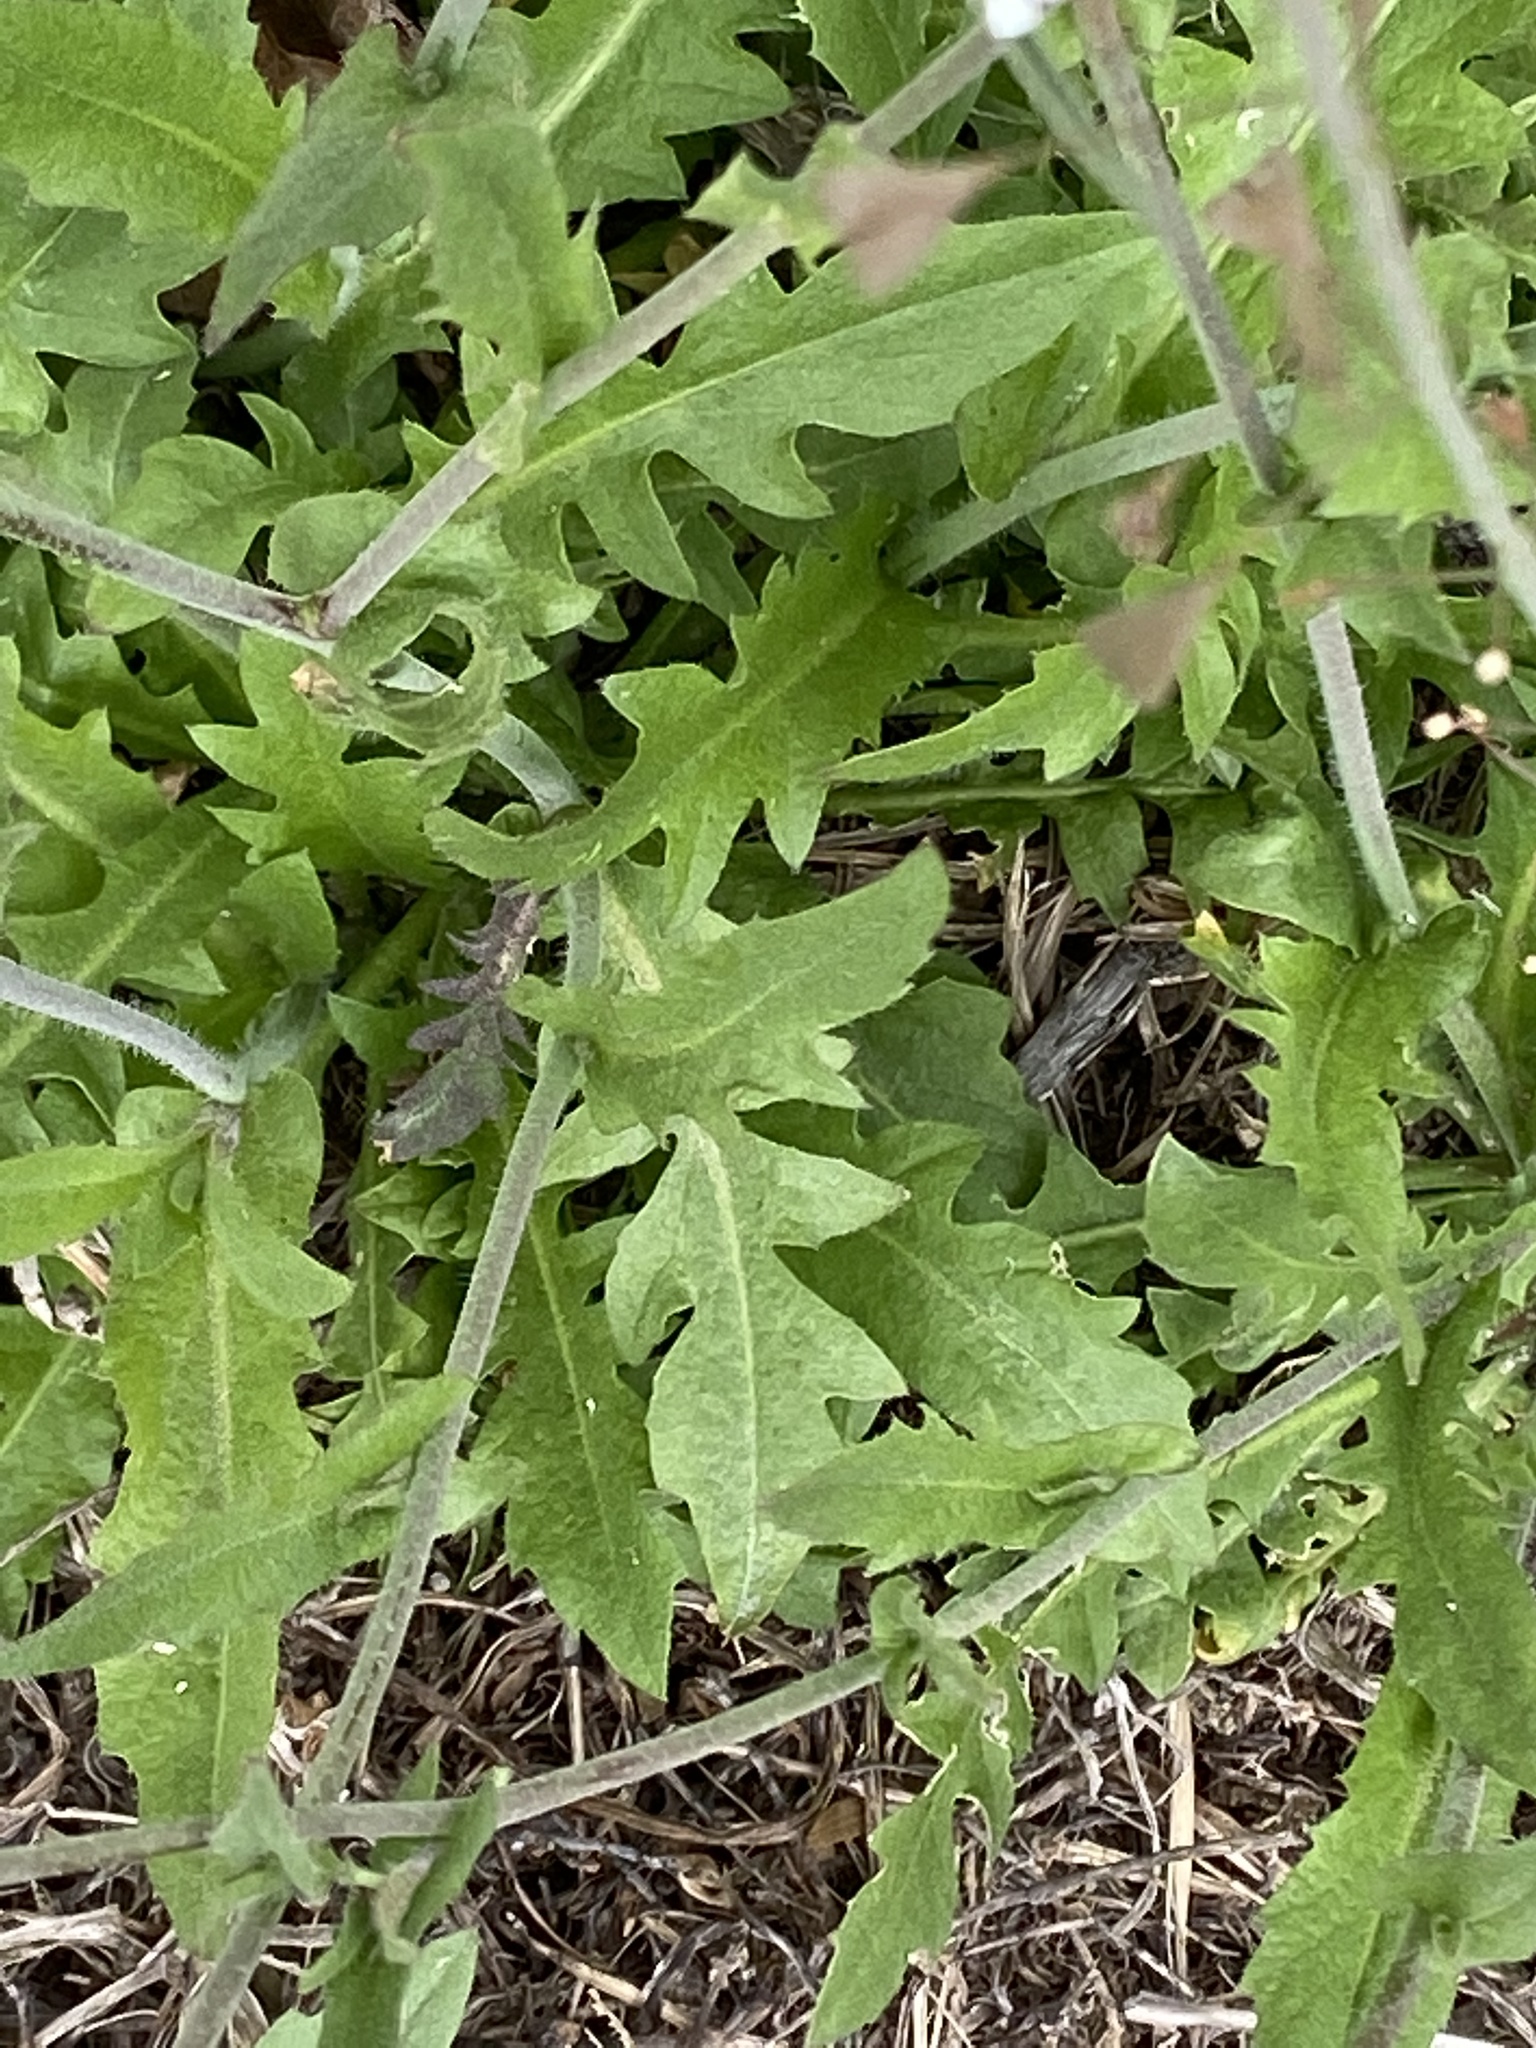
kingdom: Plantae
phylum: Tracheophyta
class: Magnoliopsida
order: Brassicales
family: Brassicaceae
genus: Capsella
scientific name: Capsella bursa-pastoris
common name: Shepherd's purse
